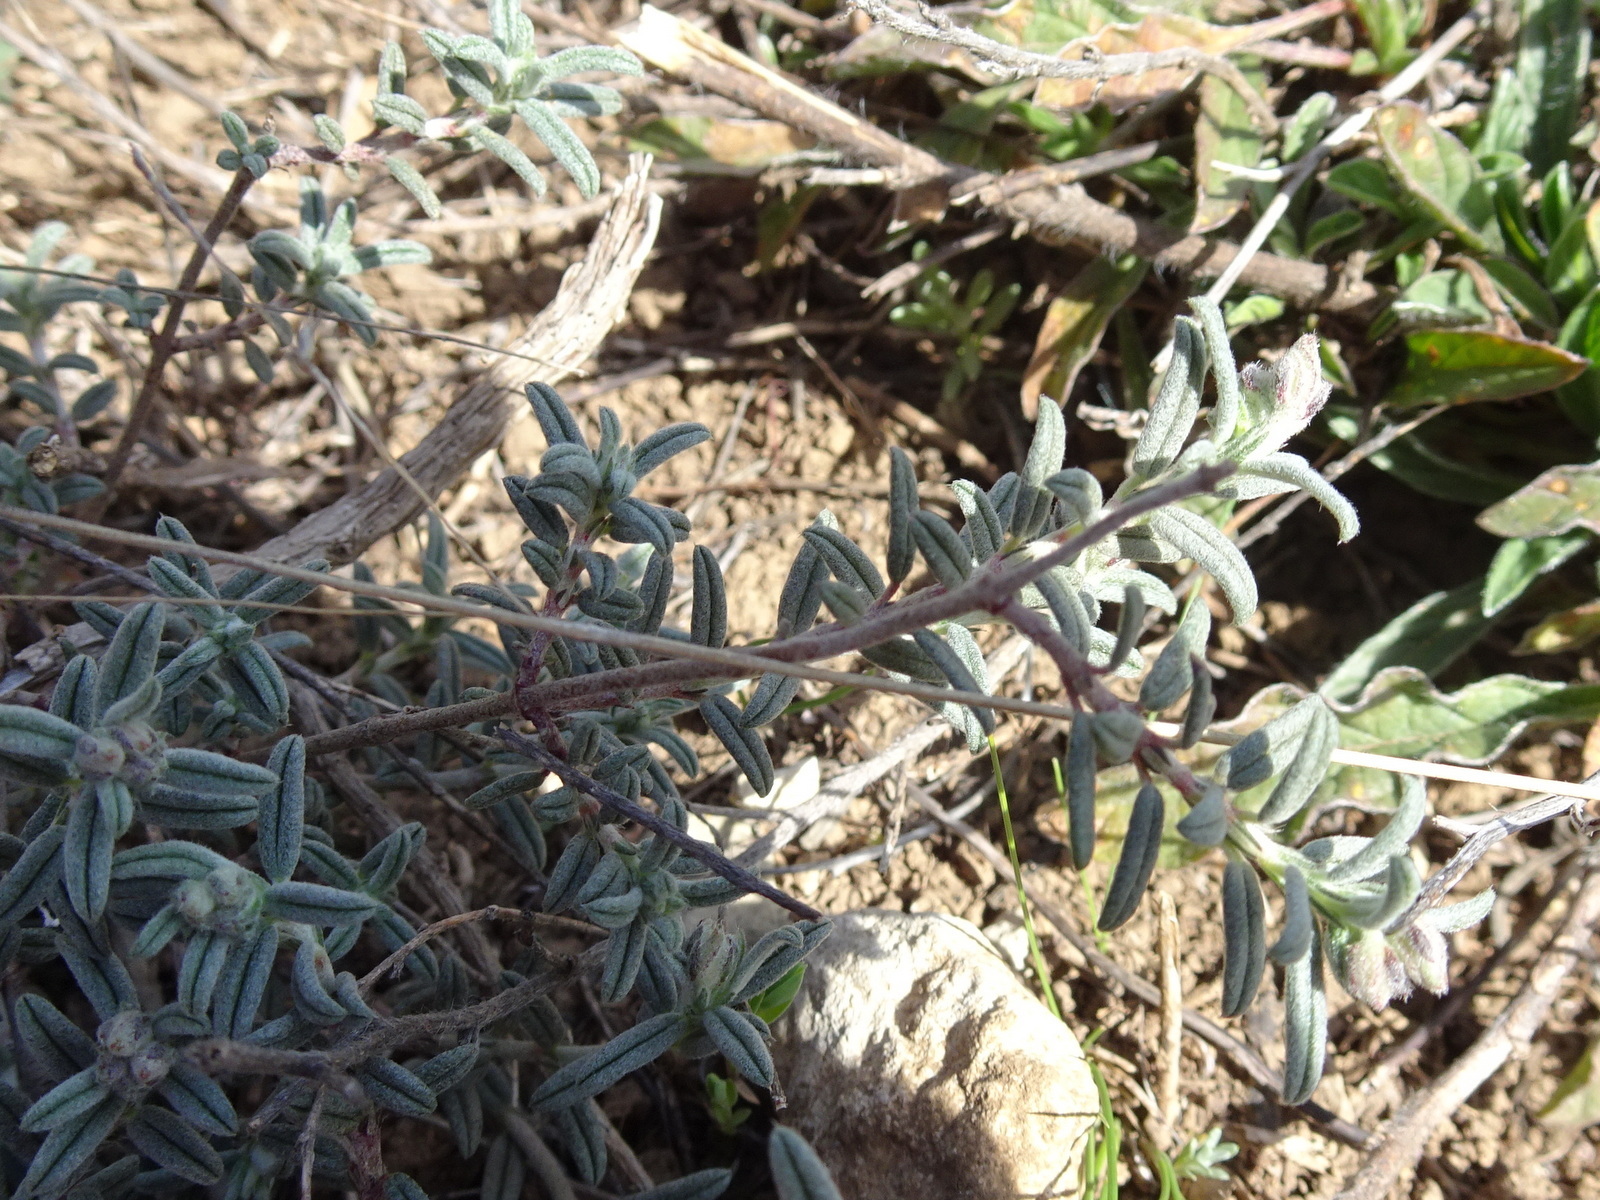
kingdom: Plantae
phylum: Tracheophyta
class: Magnoliopsida
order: Malvales
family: Cistaceae
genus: Helianthemum
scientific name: Helianthemum apenninum
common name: White rock-rose
